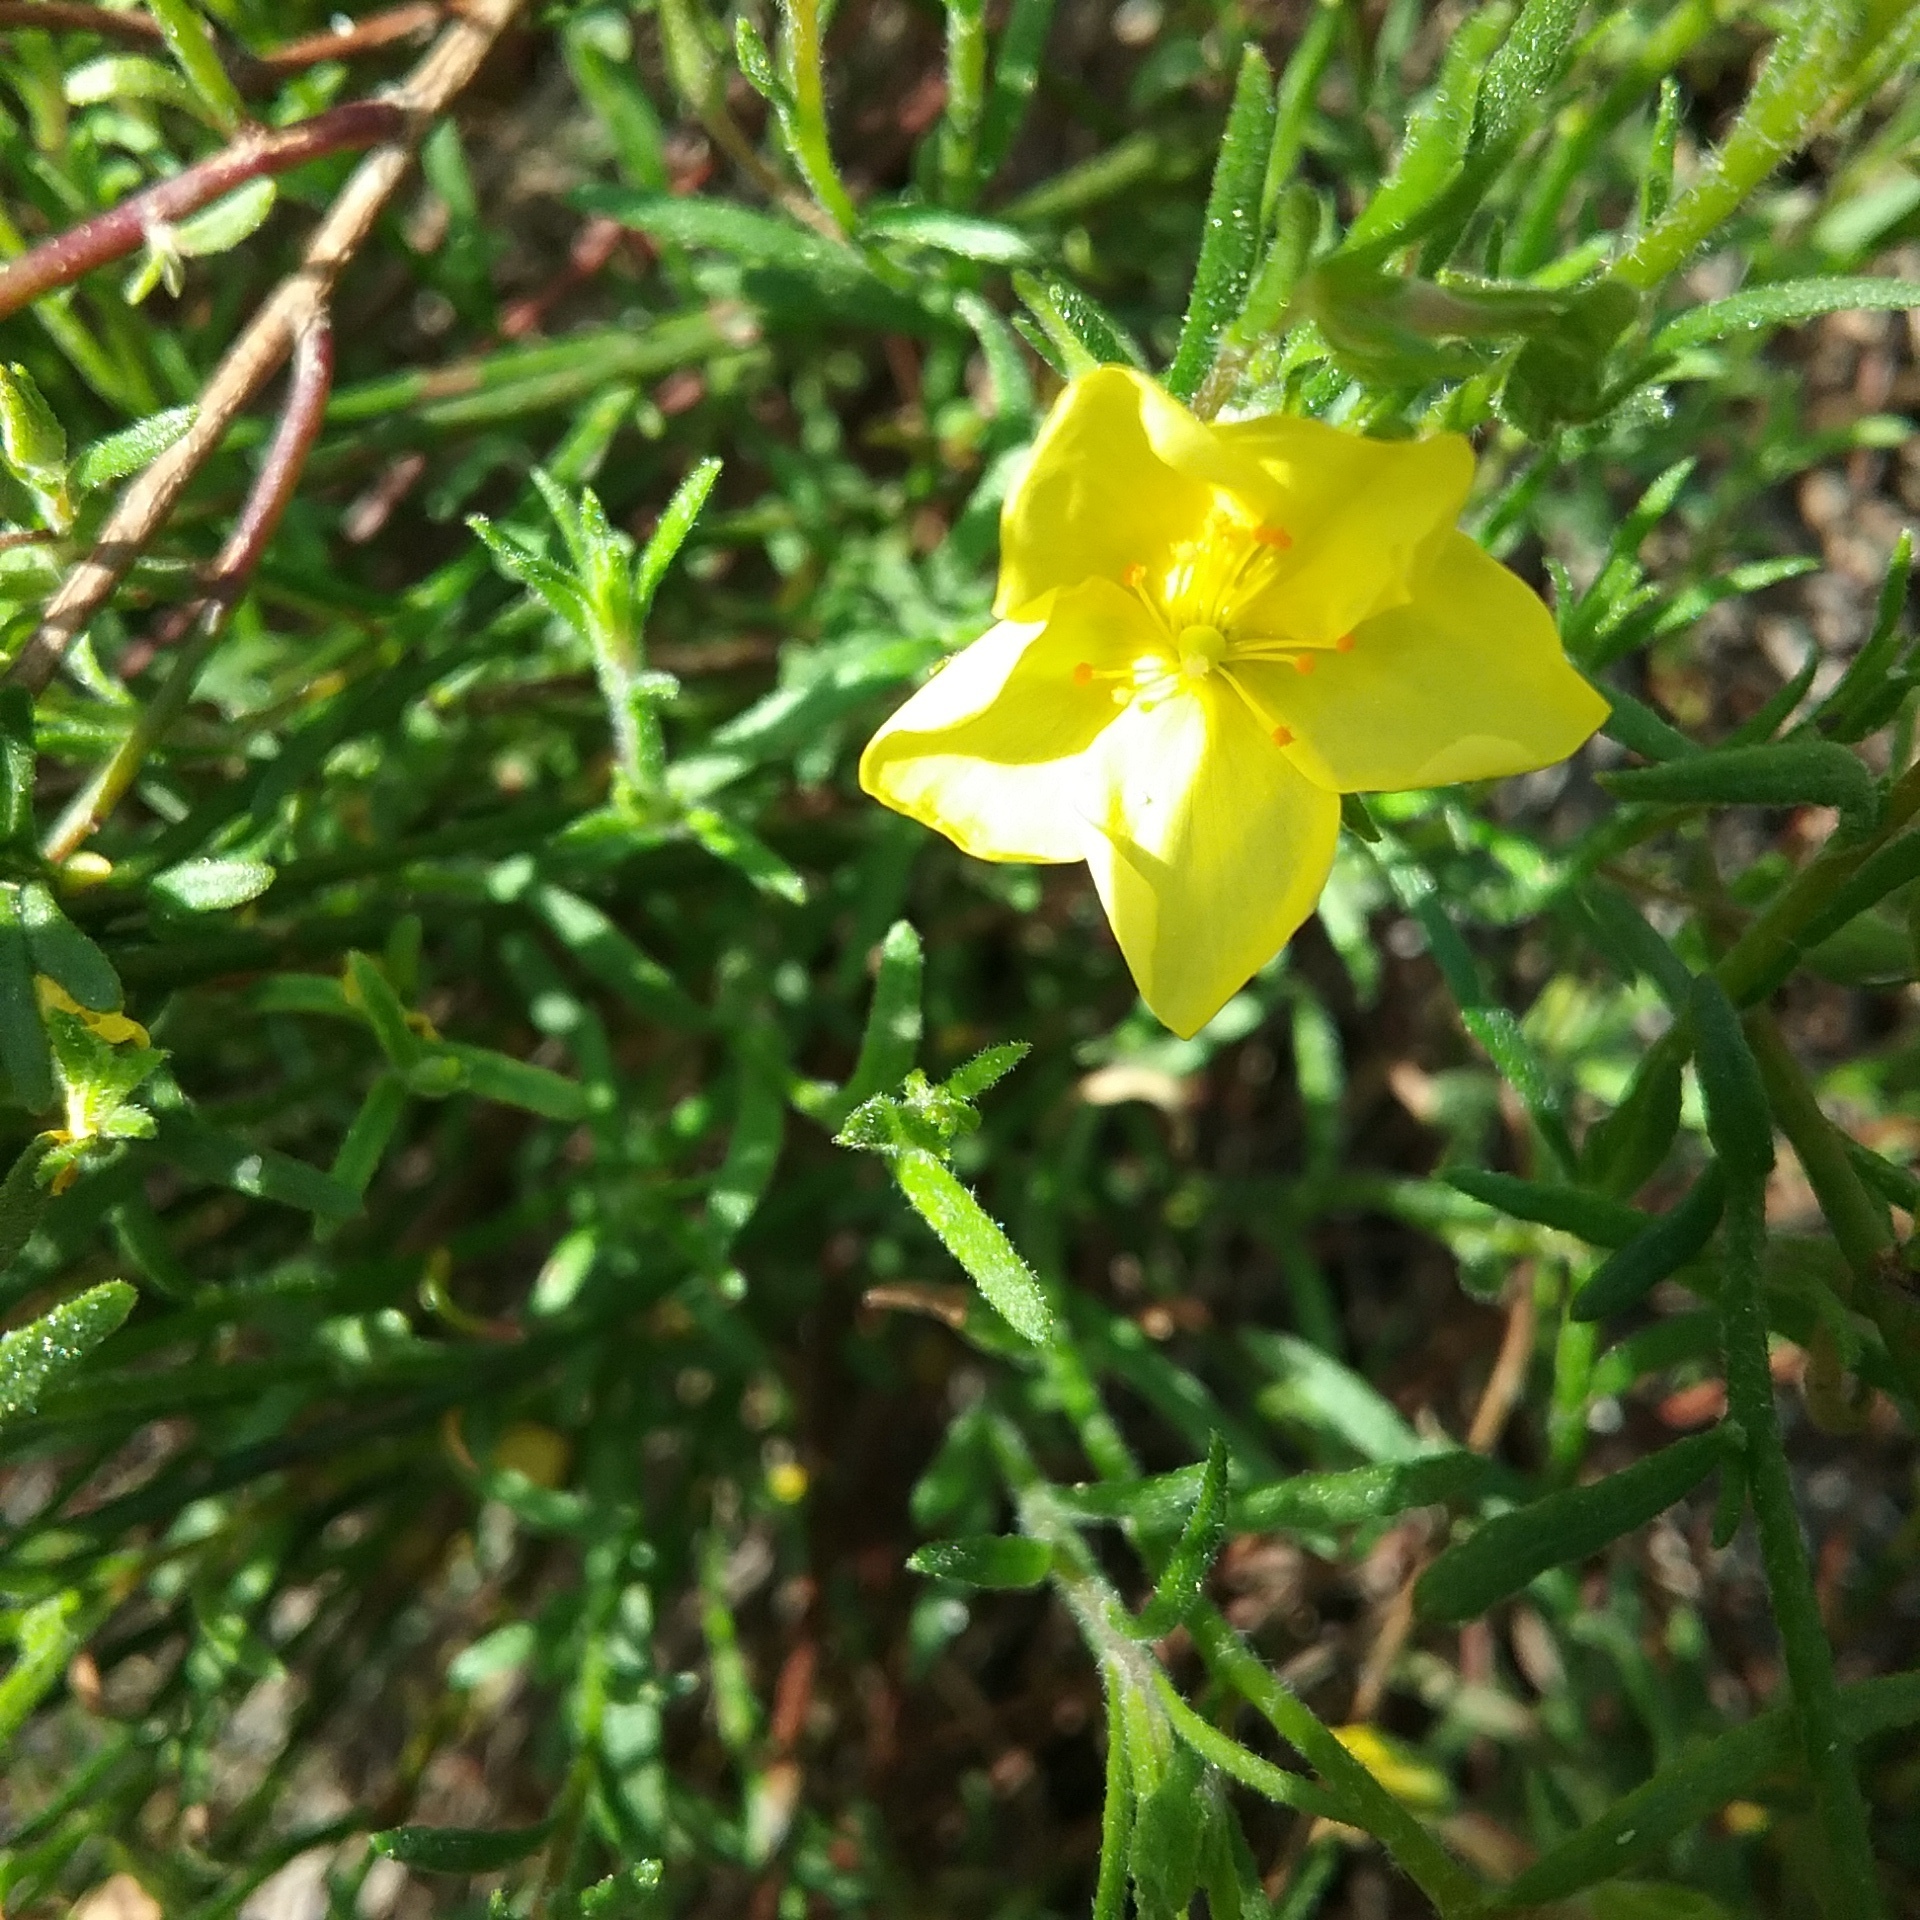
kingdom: Plantae
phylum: Tracheophyta
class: Magnoliopsida
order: Malvales
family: Cistaceae
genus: Crocanthemum
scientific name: Crocanthemum scoparium
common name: Broom-rose
